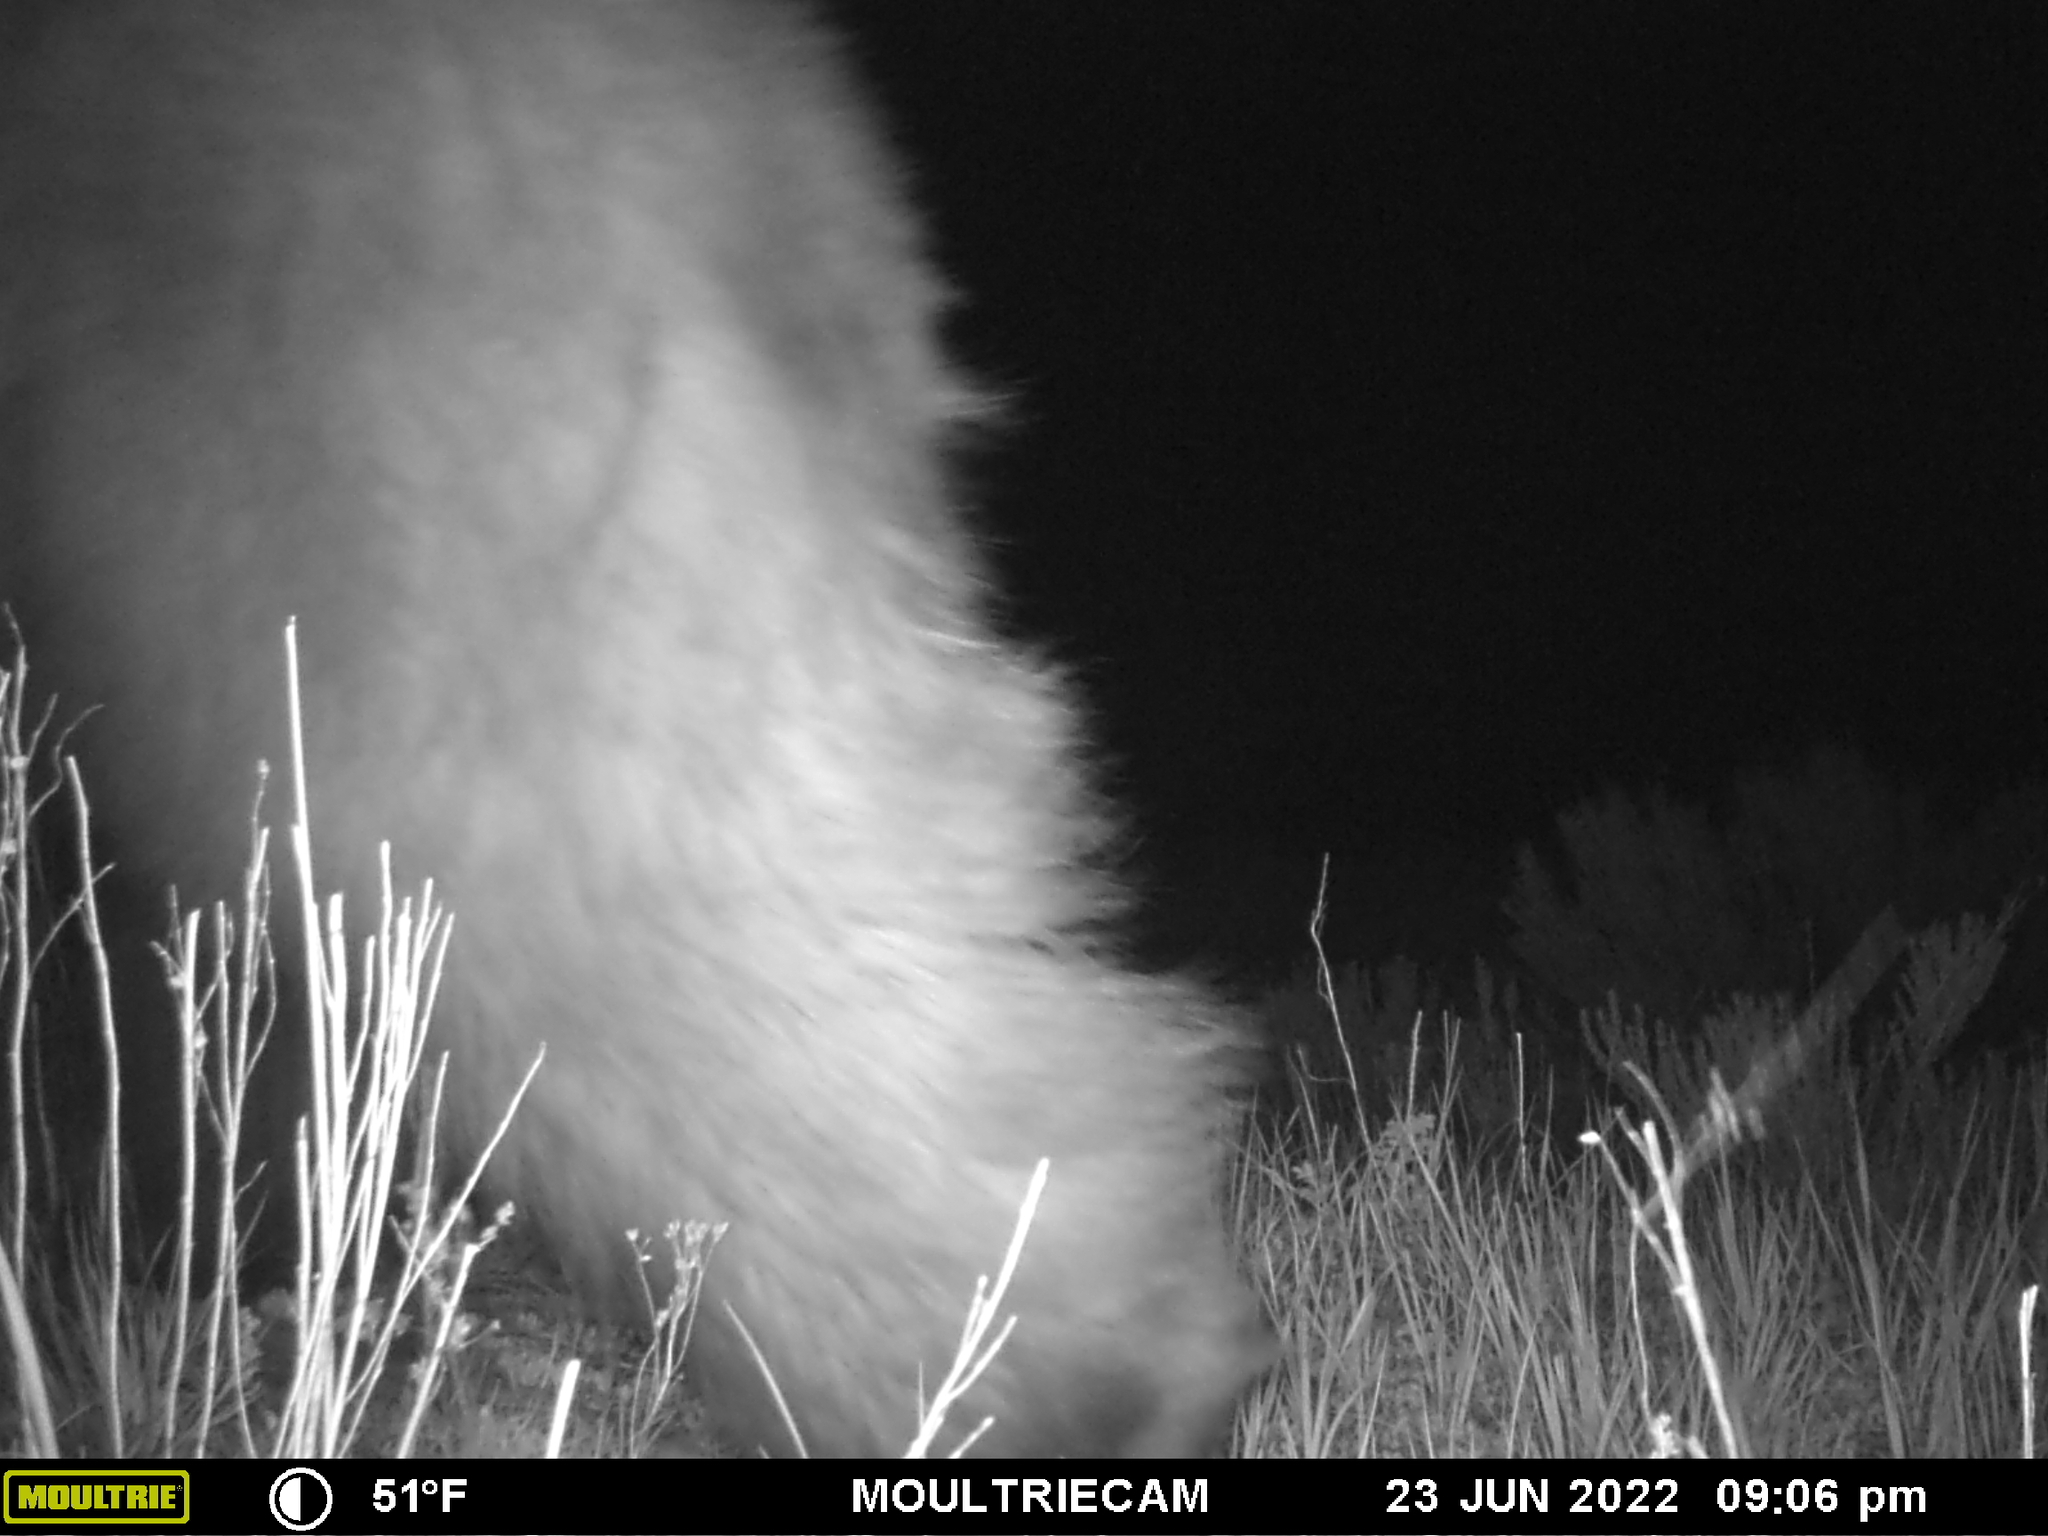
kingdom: Animalia
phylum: Chordata
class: Mammalia
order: Carnivora
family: Ursidae
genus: Ursus
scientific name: Ursus americanus
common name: American black bear
